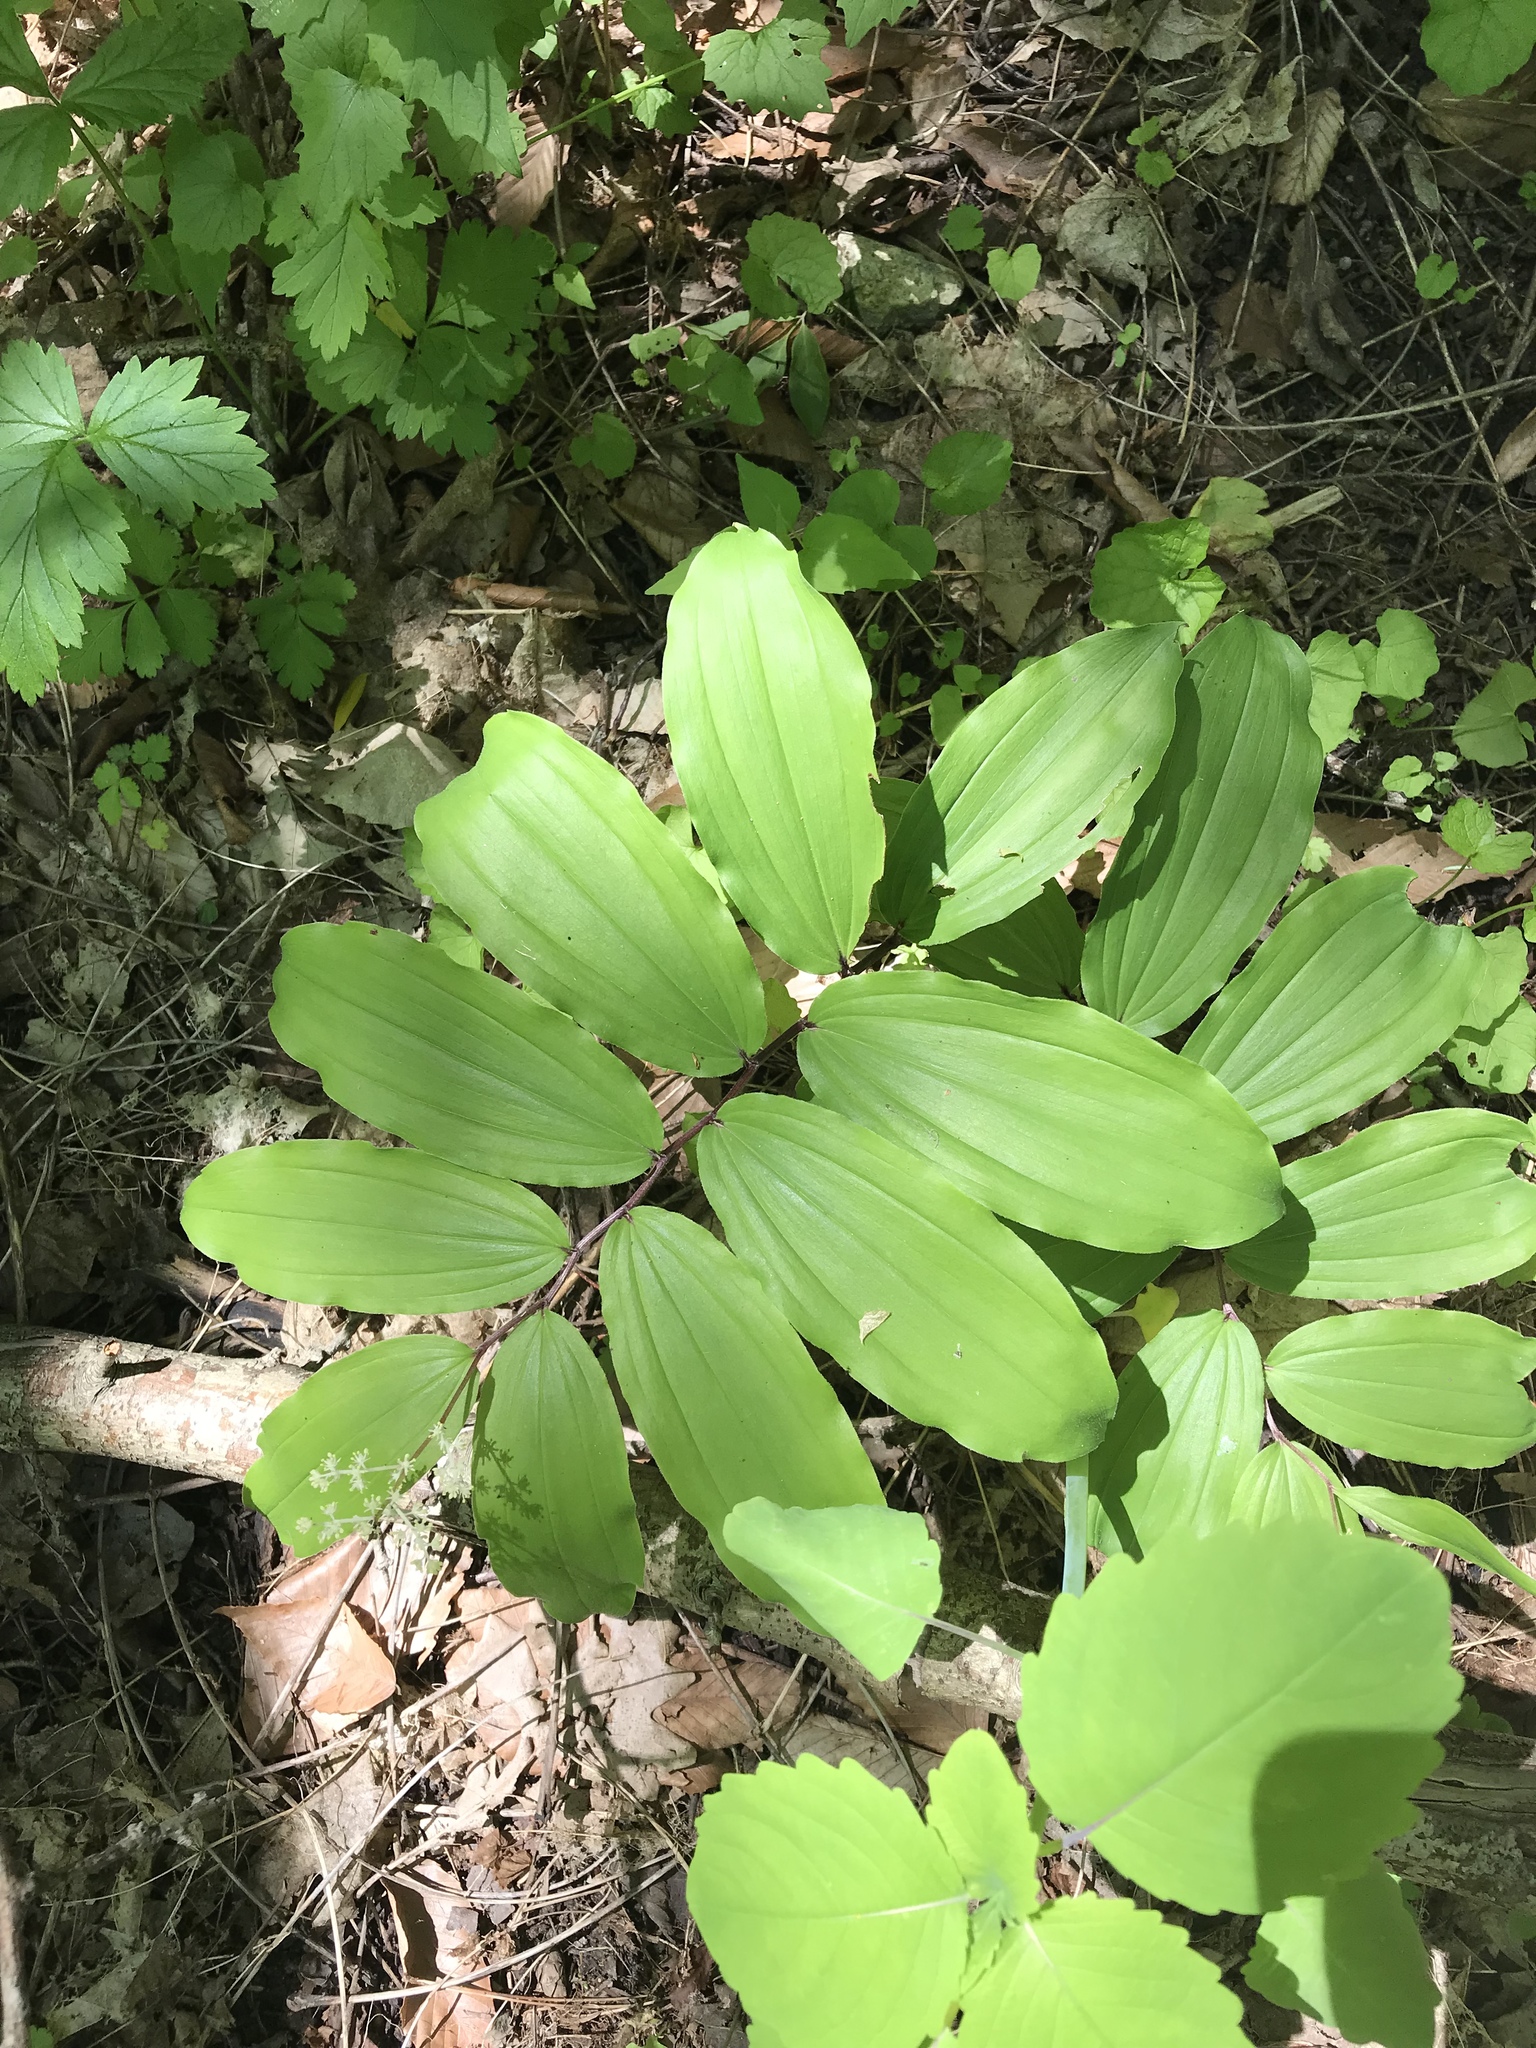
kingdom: Plantae
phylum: Tracheophyta
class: Liliopsida
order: Asparagales
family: Asparagaceae
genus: Maianthemum
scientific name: Maianthemum racemosum
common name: False spikenard
